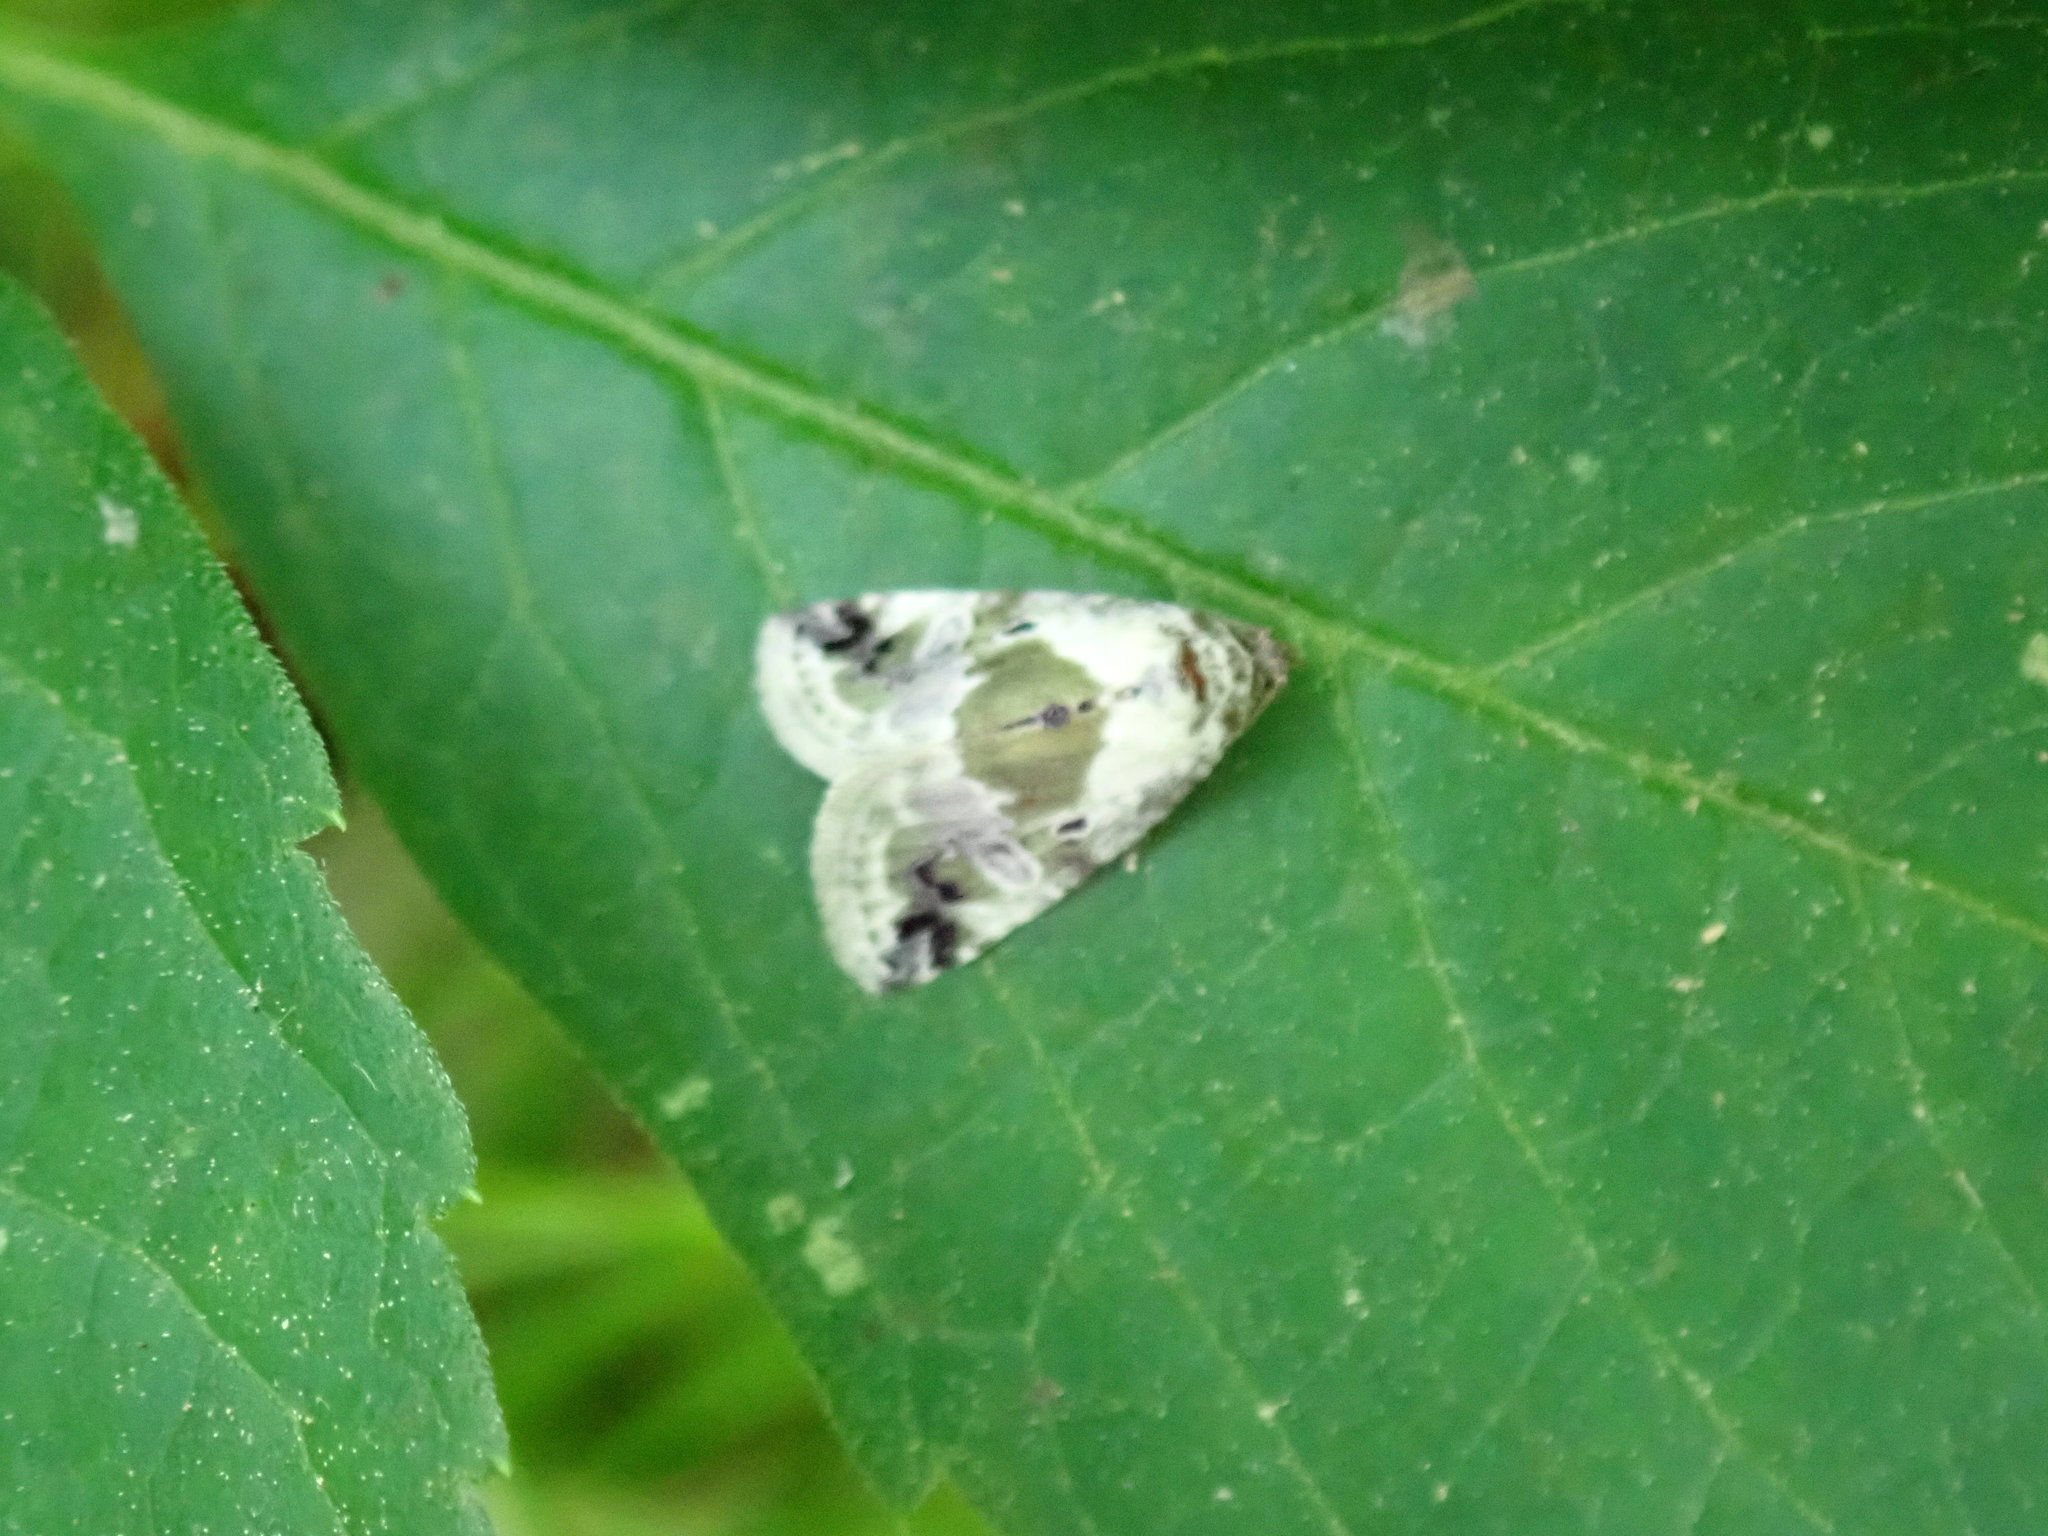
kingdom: Animalia
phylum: Arthropoda
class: Insecta
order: Lepidoptera
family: Noctuidae
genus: Maliattha
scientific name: Maliattha synochitis
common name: Black-dotted glyph
